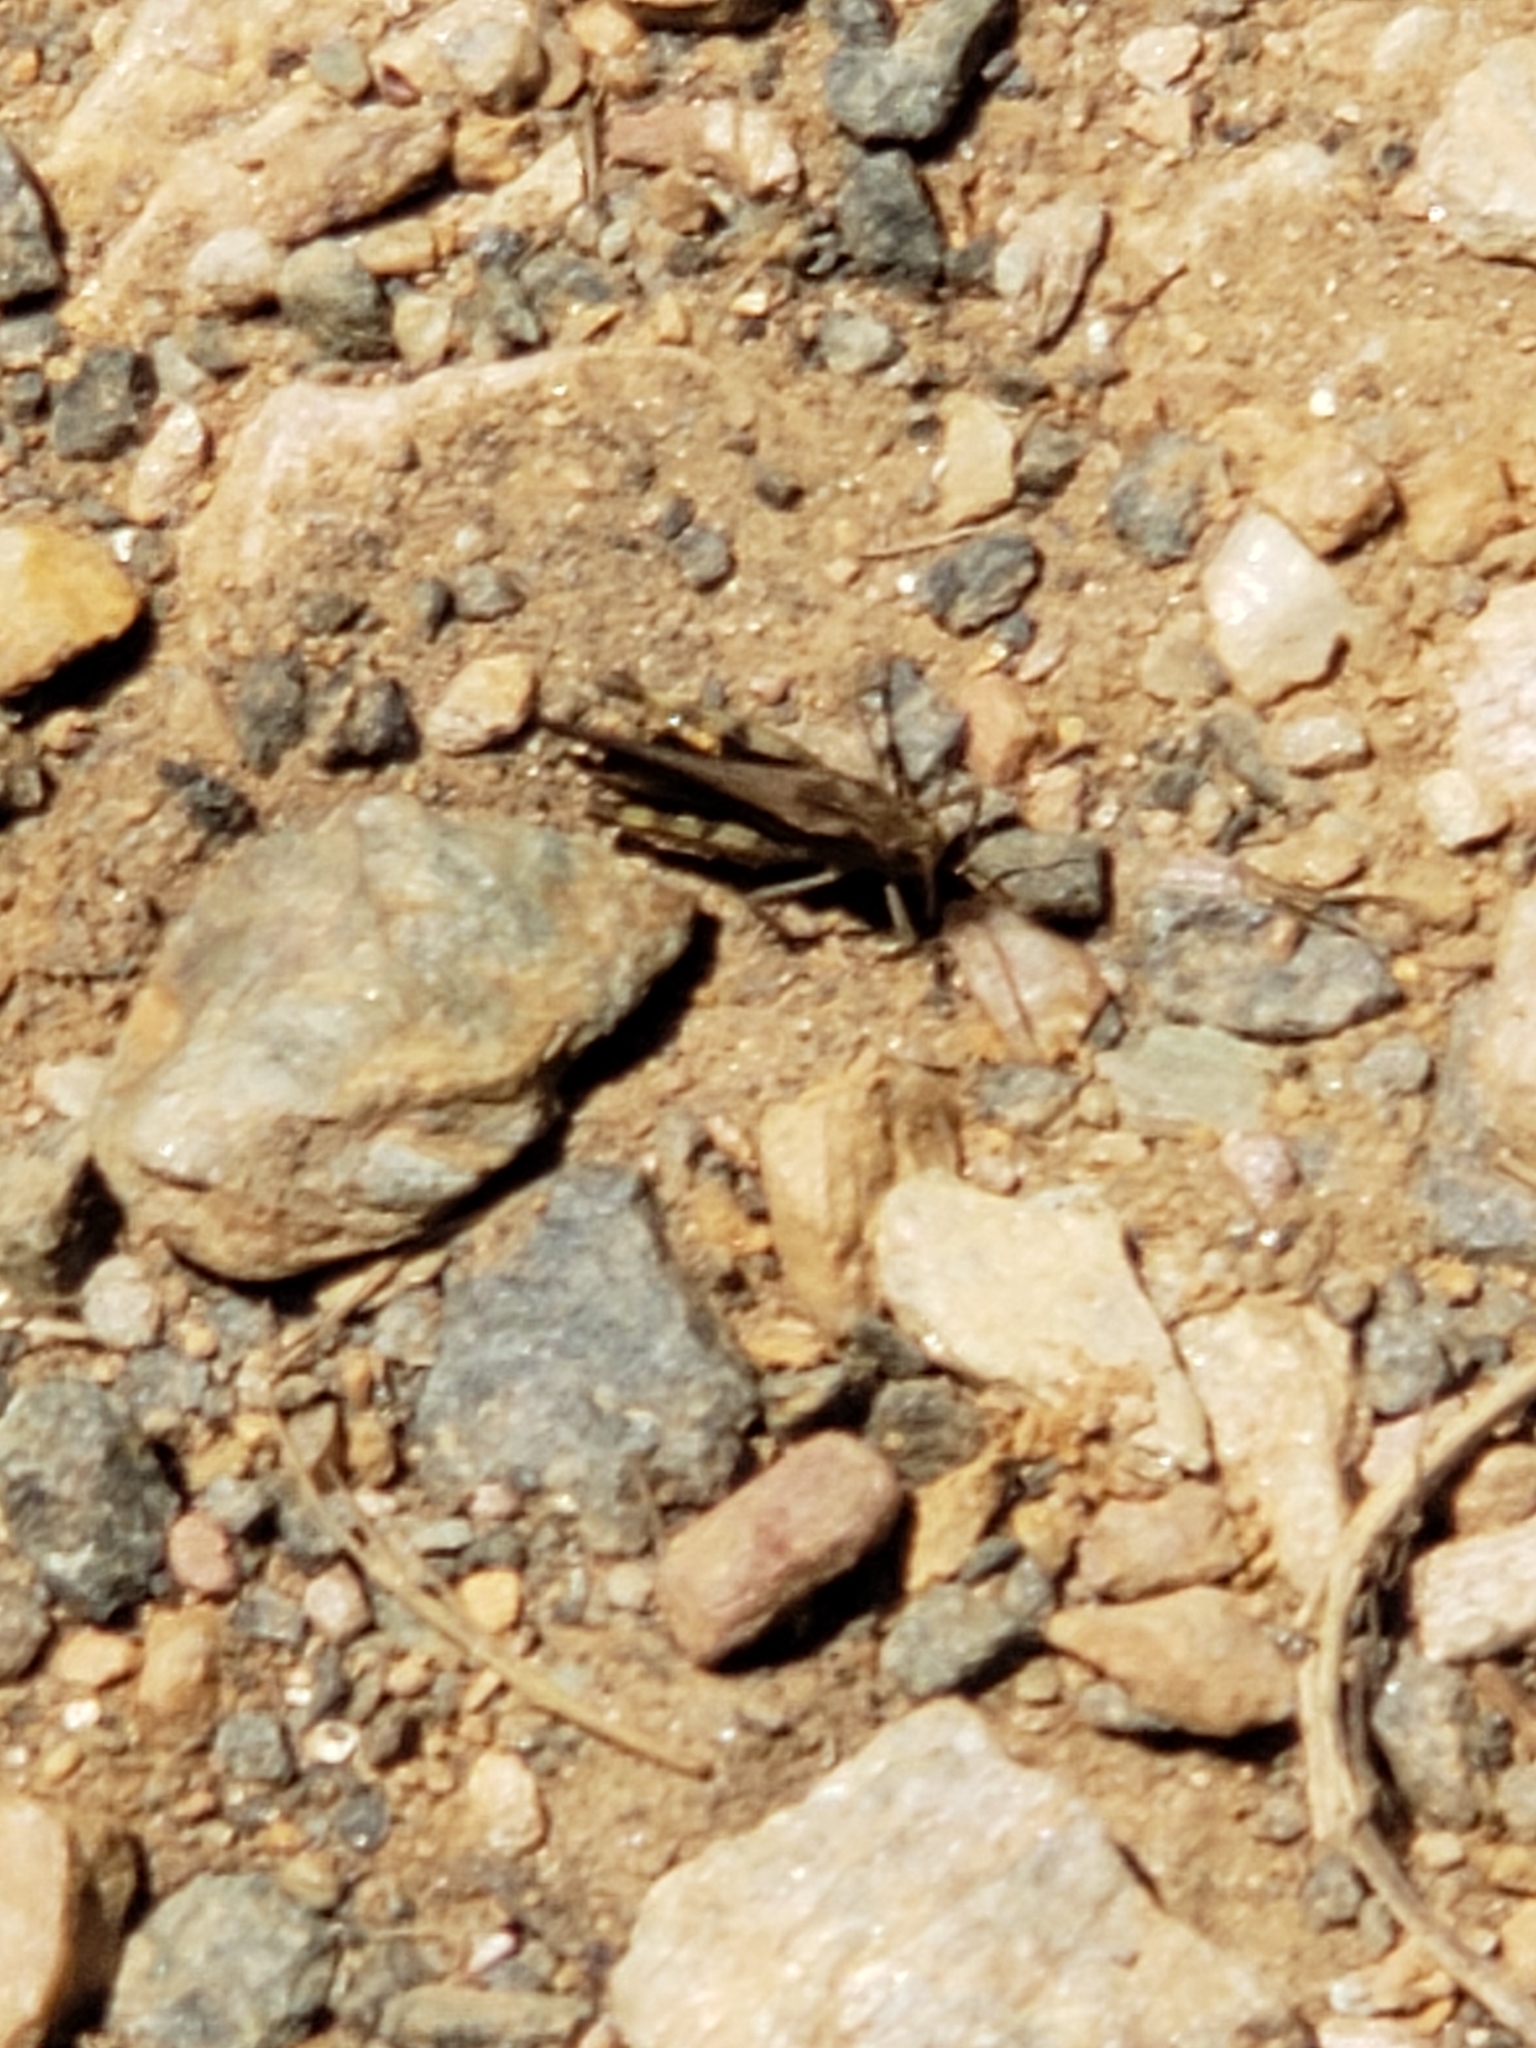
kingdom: Animalia
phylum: Arthropoda
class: Insecta
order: Orthoptera
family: Acrididae
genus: Chortophaga
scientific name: Chortophaga viridifasciata
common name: Green-striped grasshopper
